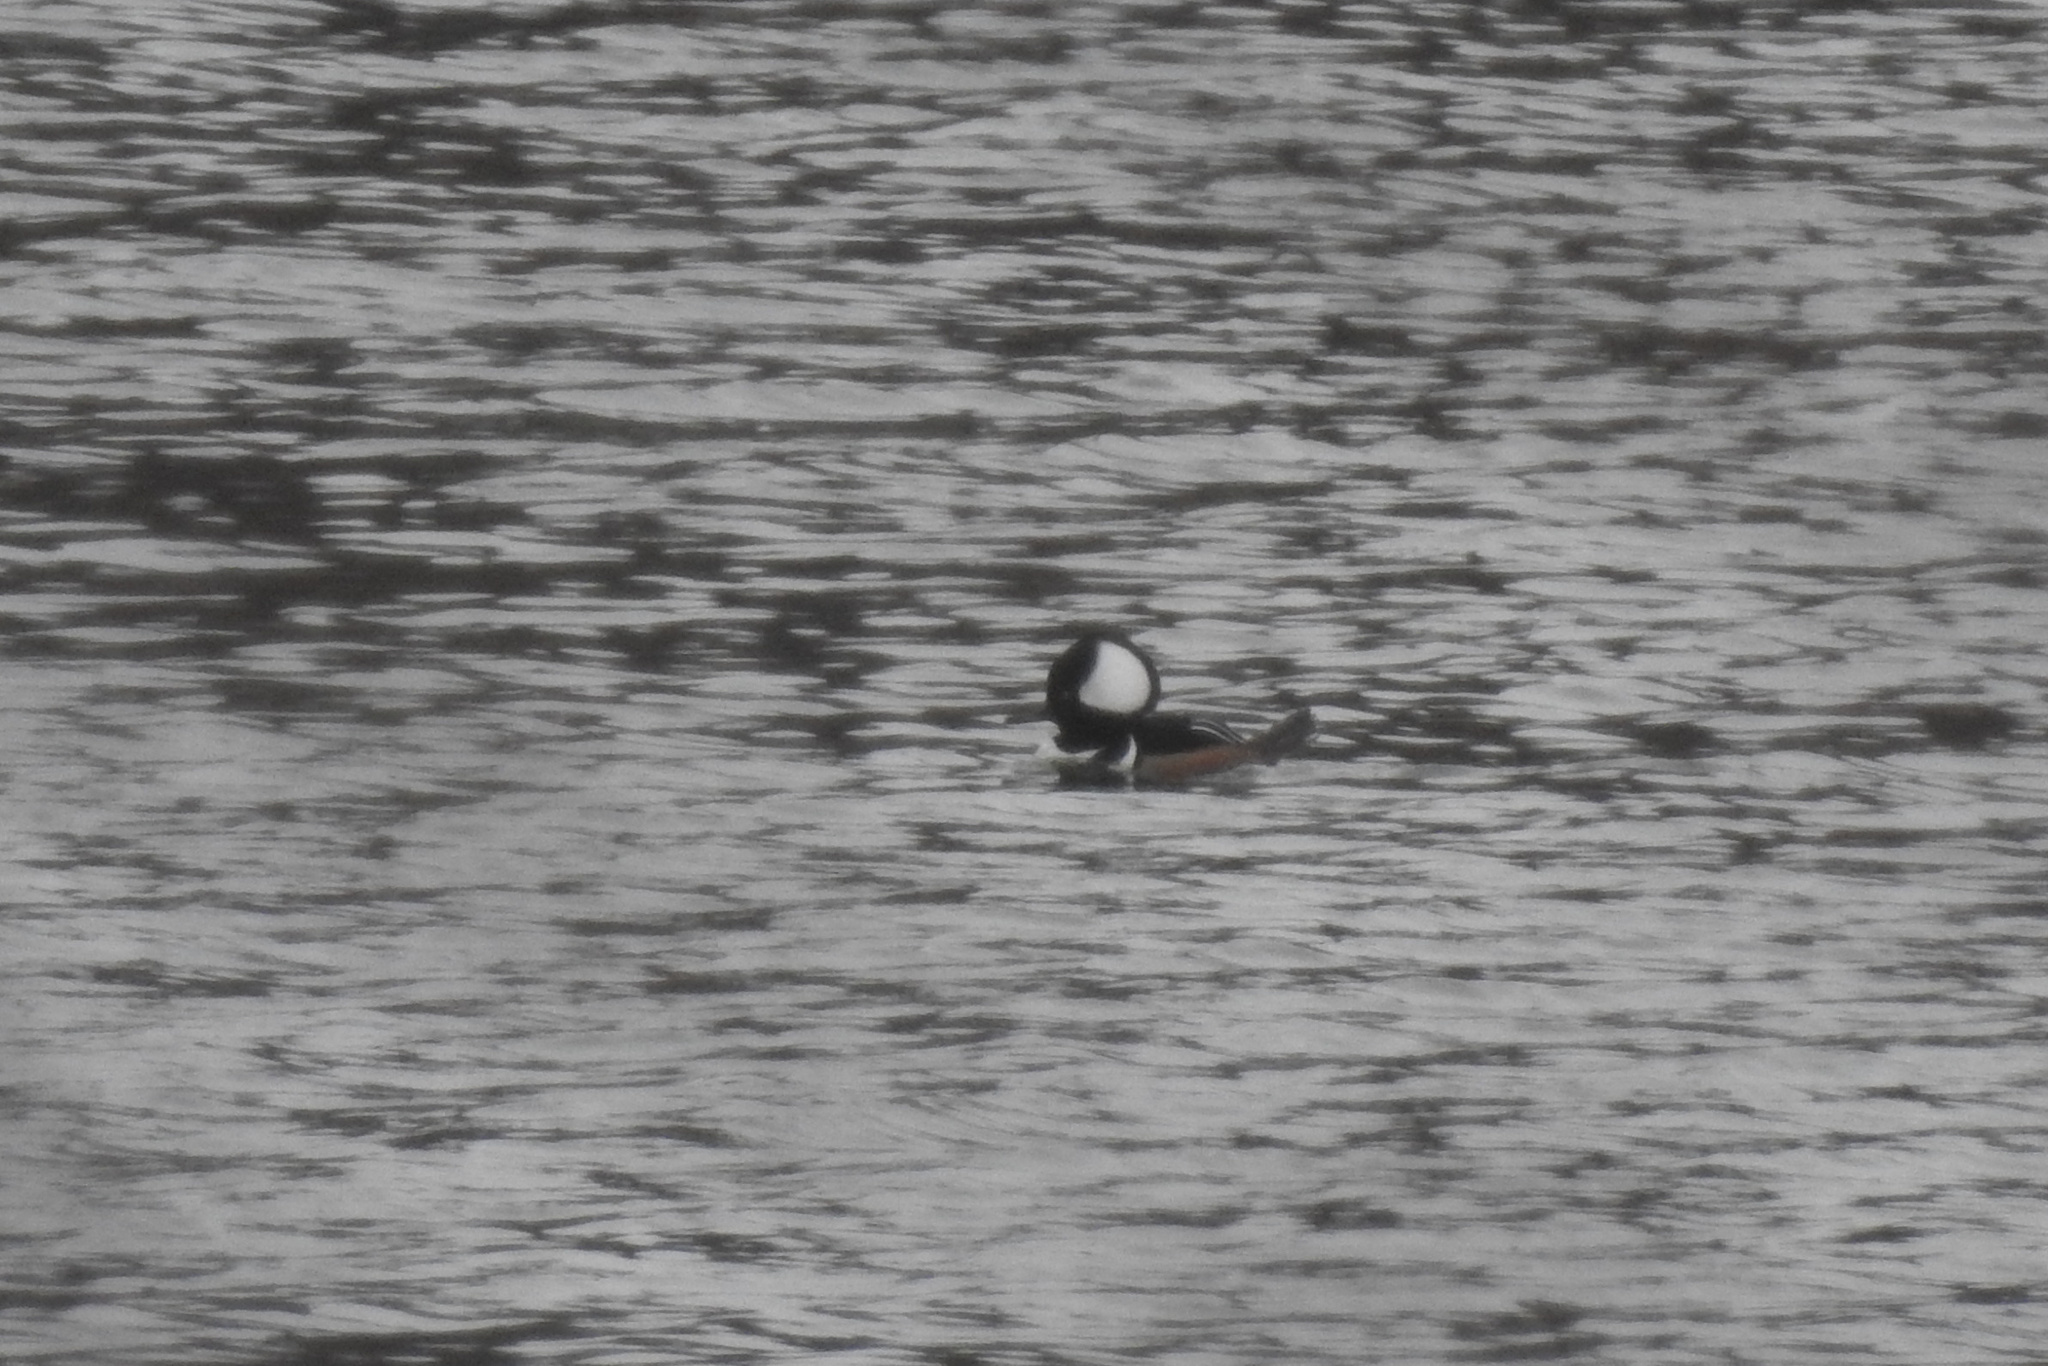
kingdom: Animalia
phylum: Chordata
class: Aves
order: Anseriformes
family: Anatidae
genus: Lophodytes
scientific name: Lophodytes cucullatus
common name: Hooded merganser
